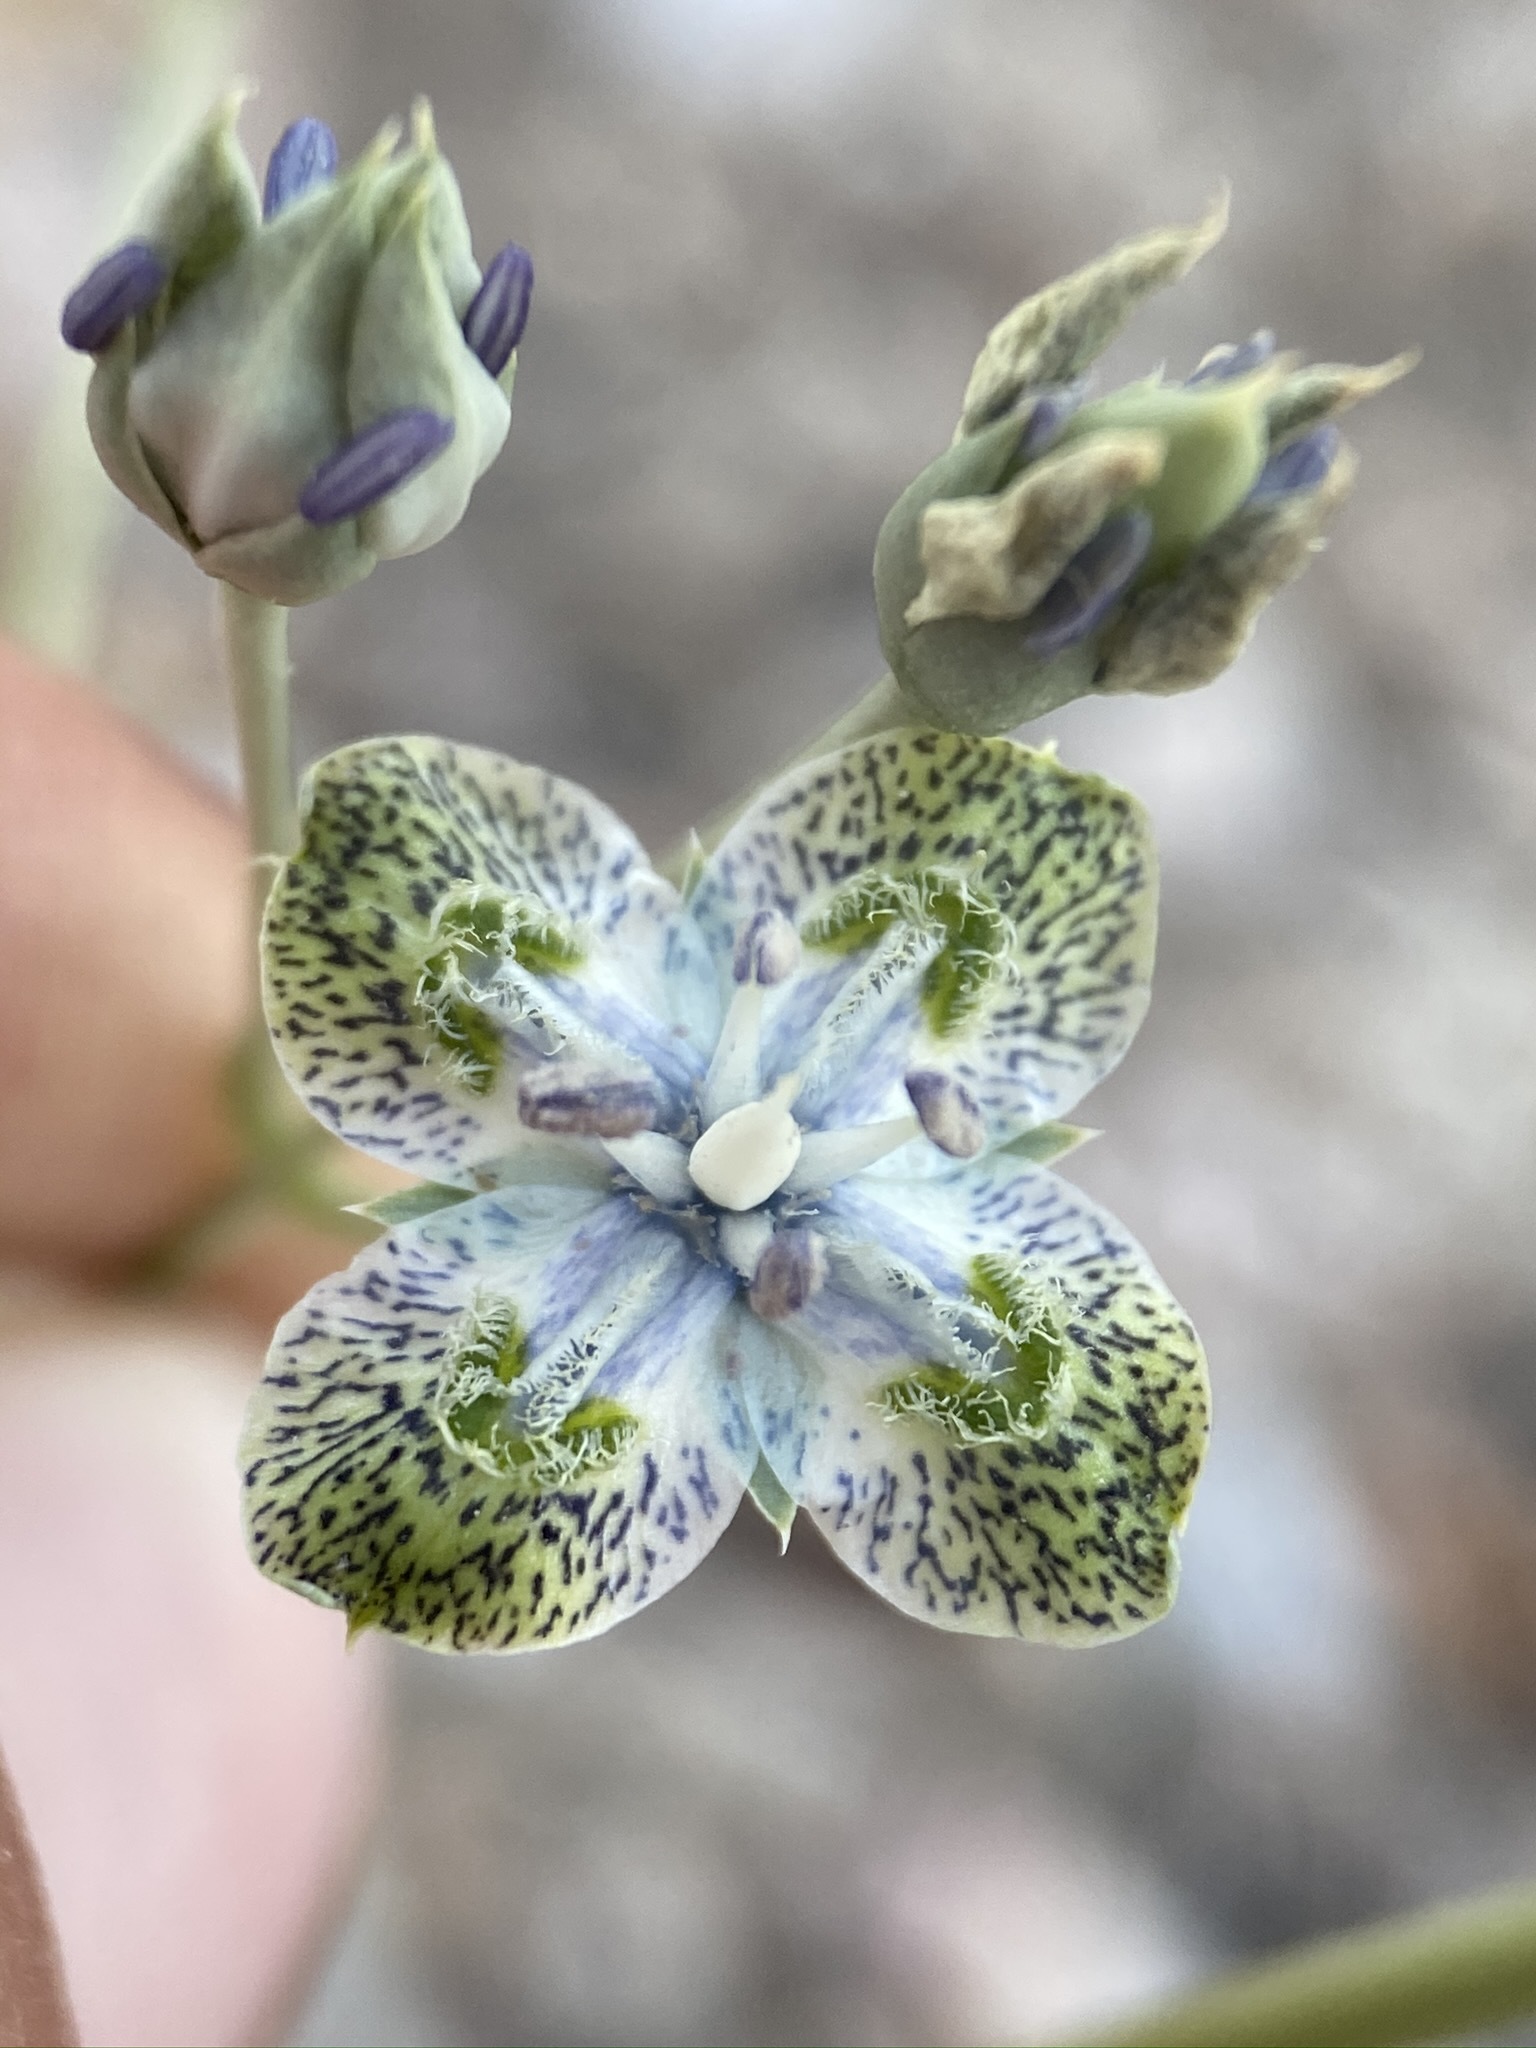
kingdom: Plantae
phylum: Tracheophyta
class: Magnoliopsida
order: Gentianales
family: Gentianaceae
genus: Frasera
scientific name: Frasera albomarginata
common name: Desert frasera
